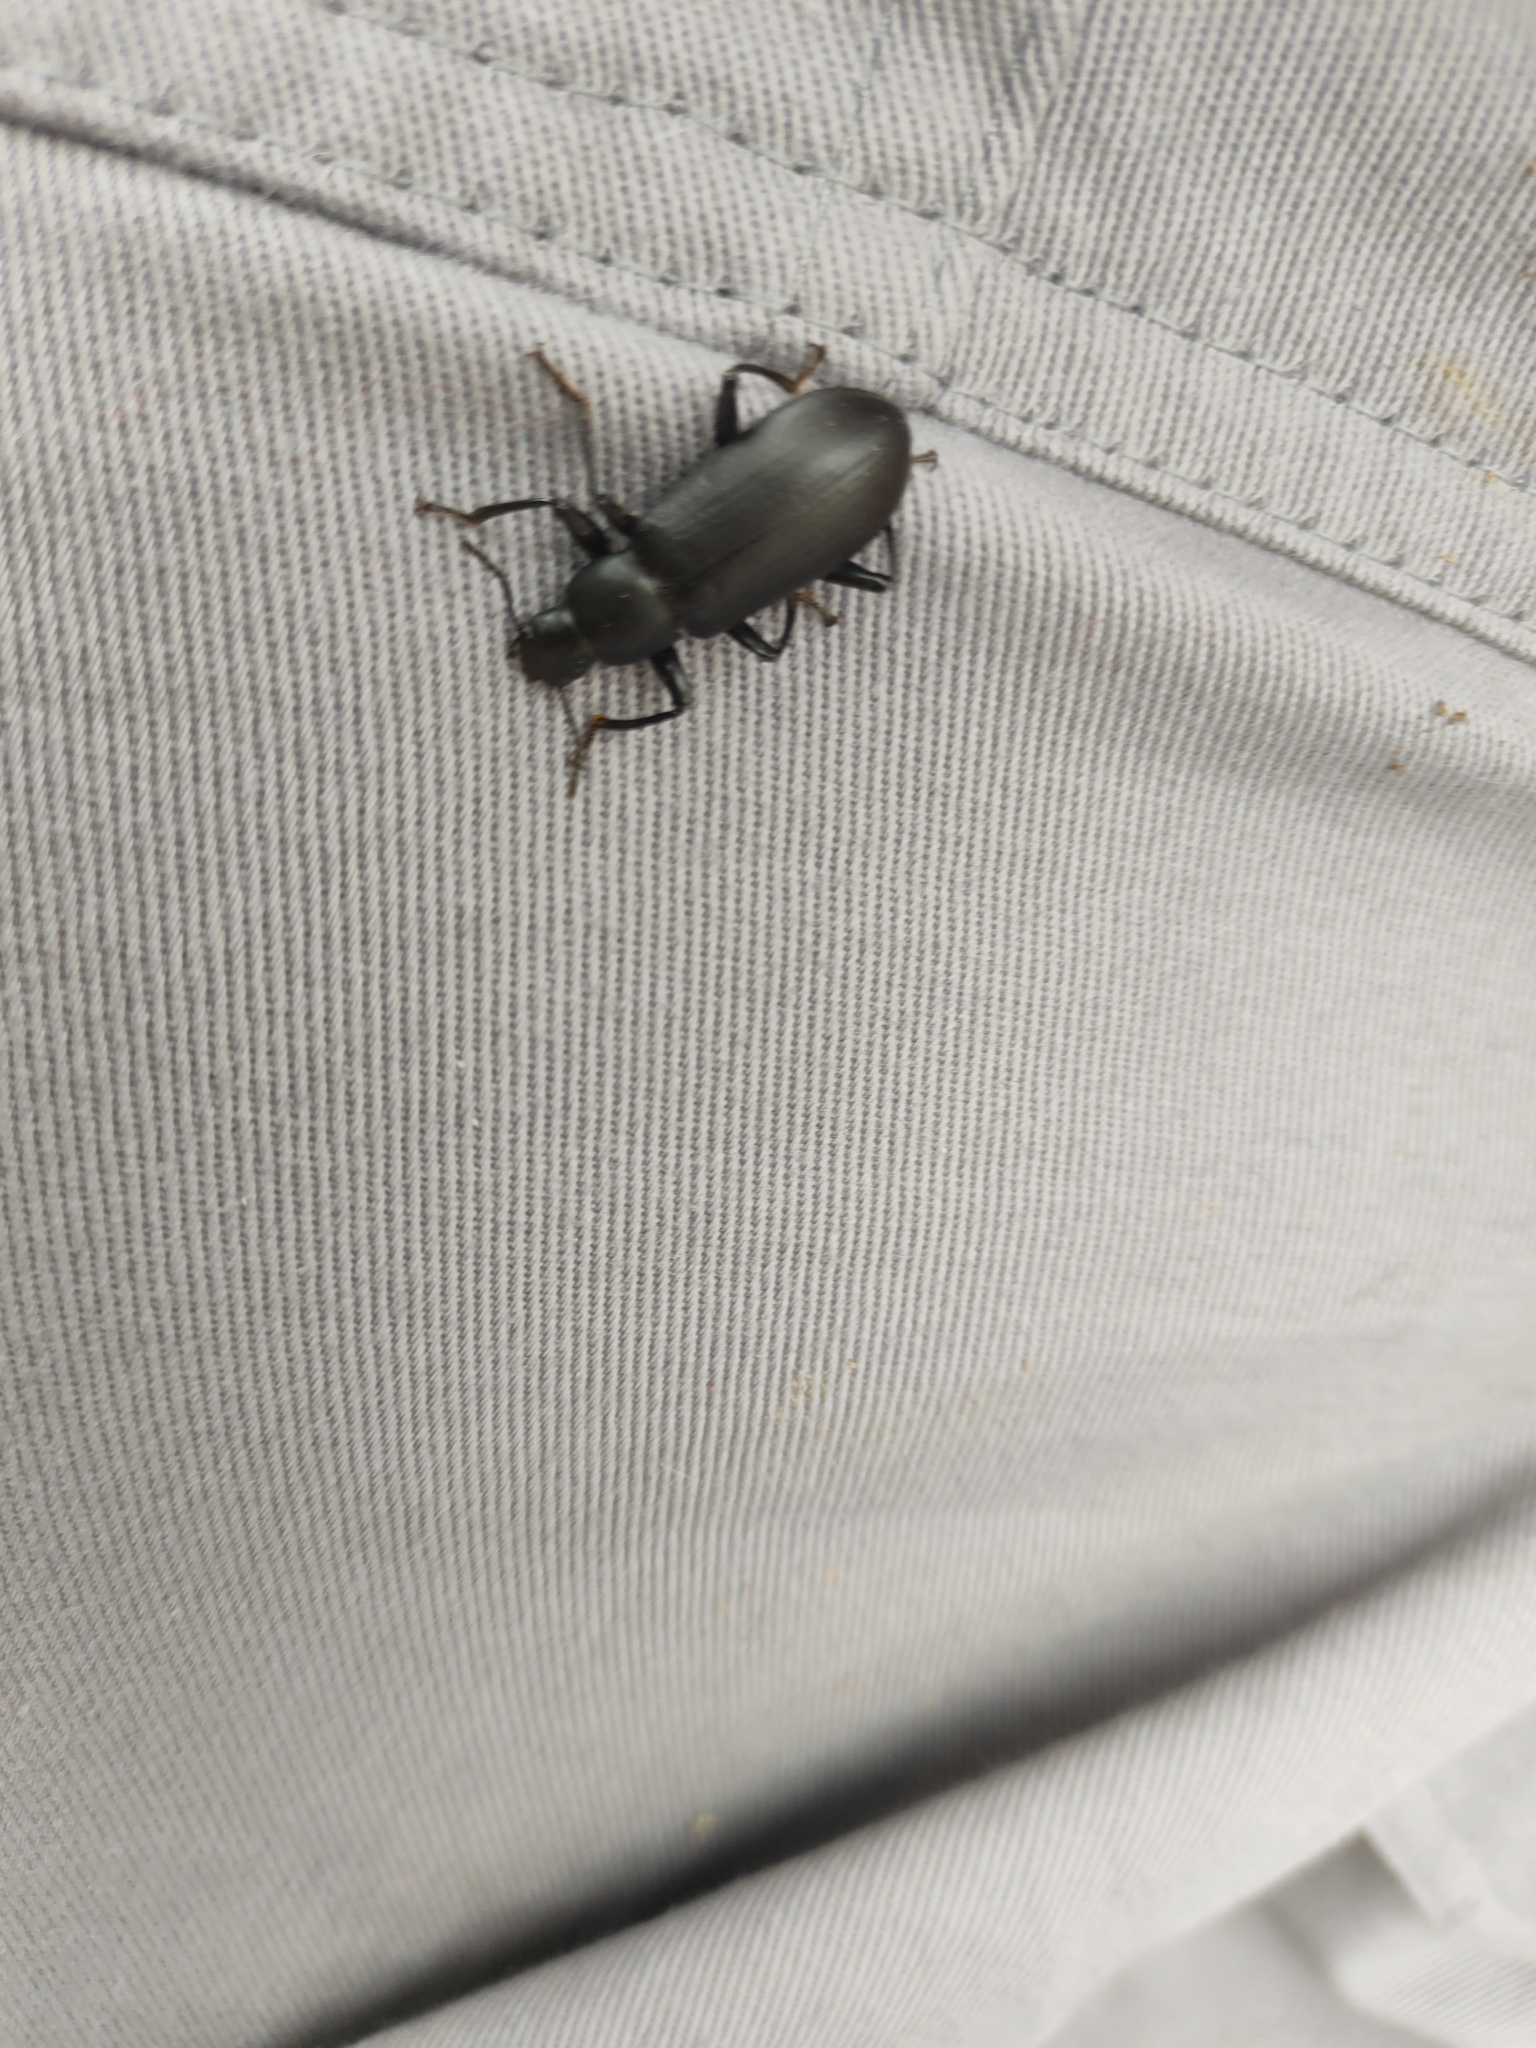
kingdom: Animalia
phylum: Arthropoda
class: Insecta
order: Coleoptera
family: Tenebrionidae
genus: Alobates
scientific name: Alobates
